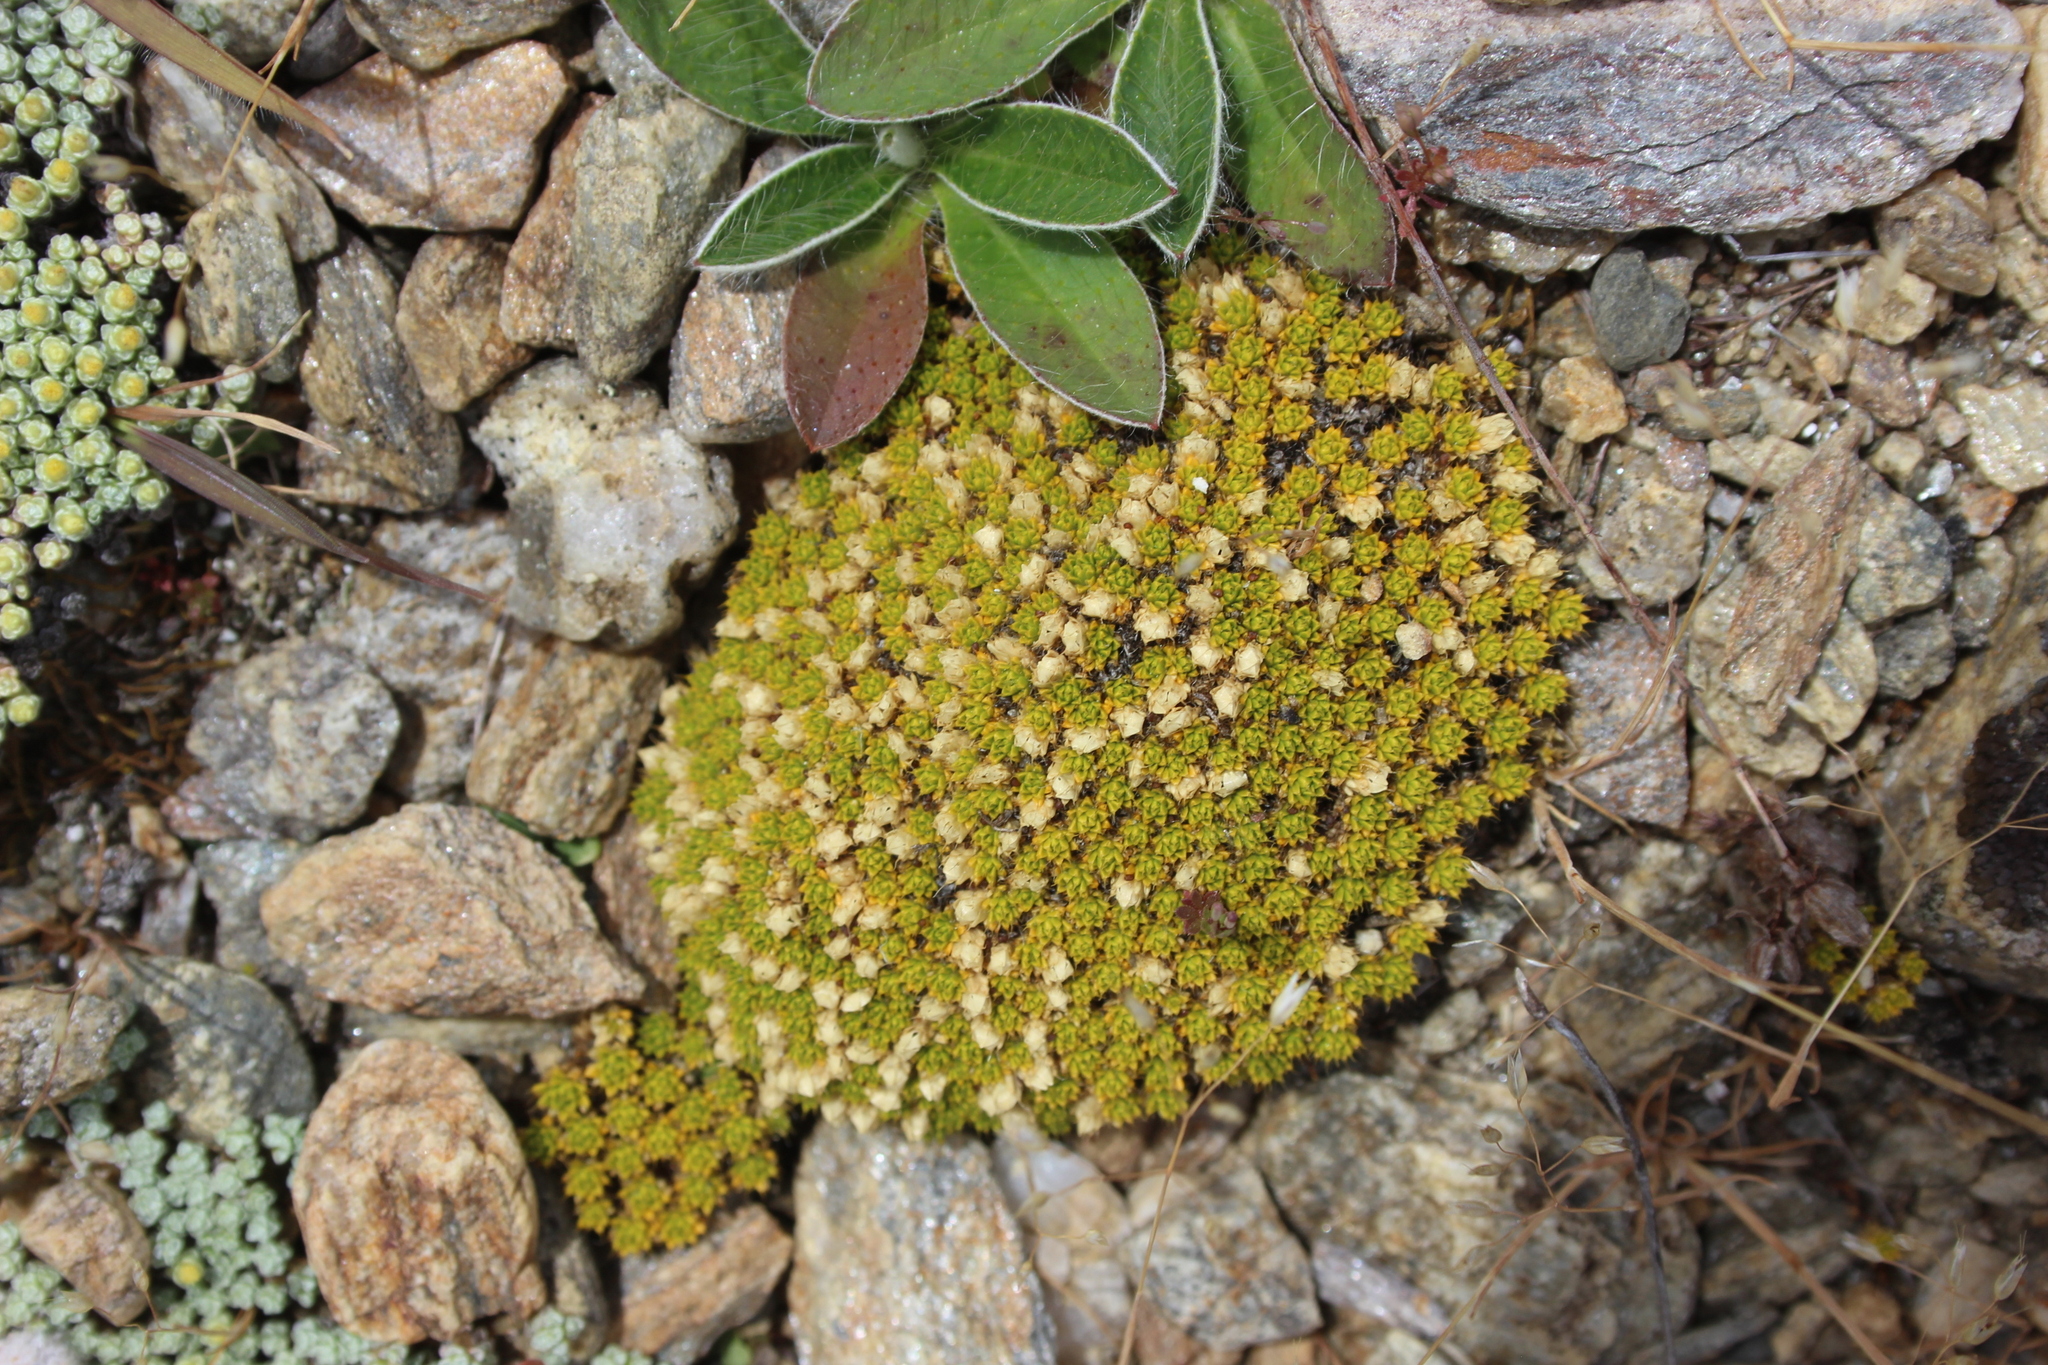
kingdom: Plantae
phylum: Tracheophyta
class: Magnoliopsida
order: Caryophyllales
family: Caryophyllaceae
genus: Colobanthus
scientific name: Colobanthus brevisepalus
